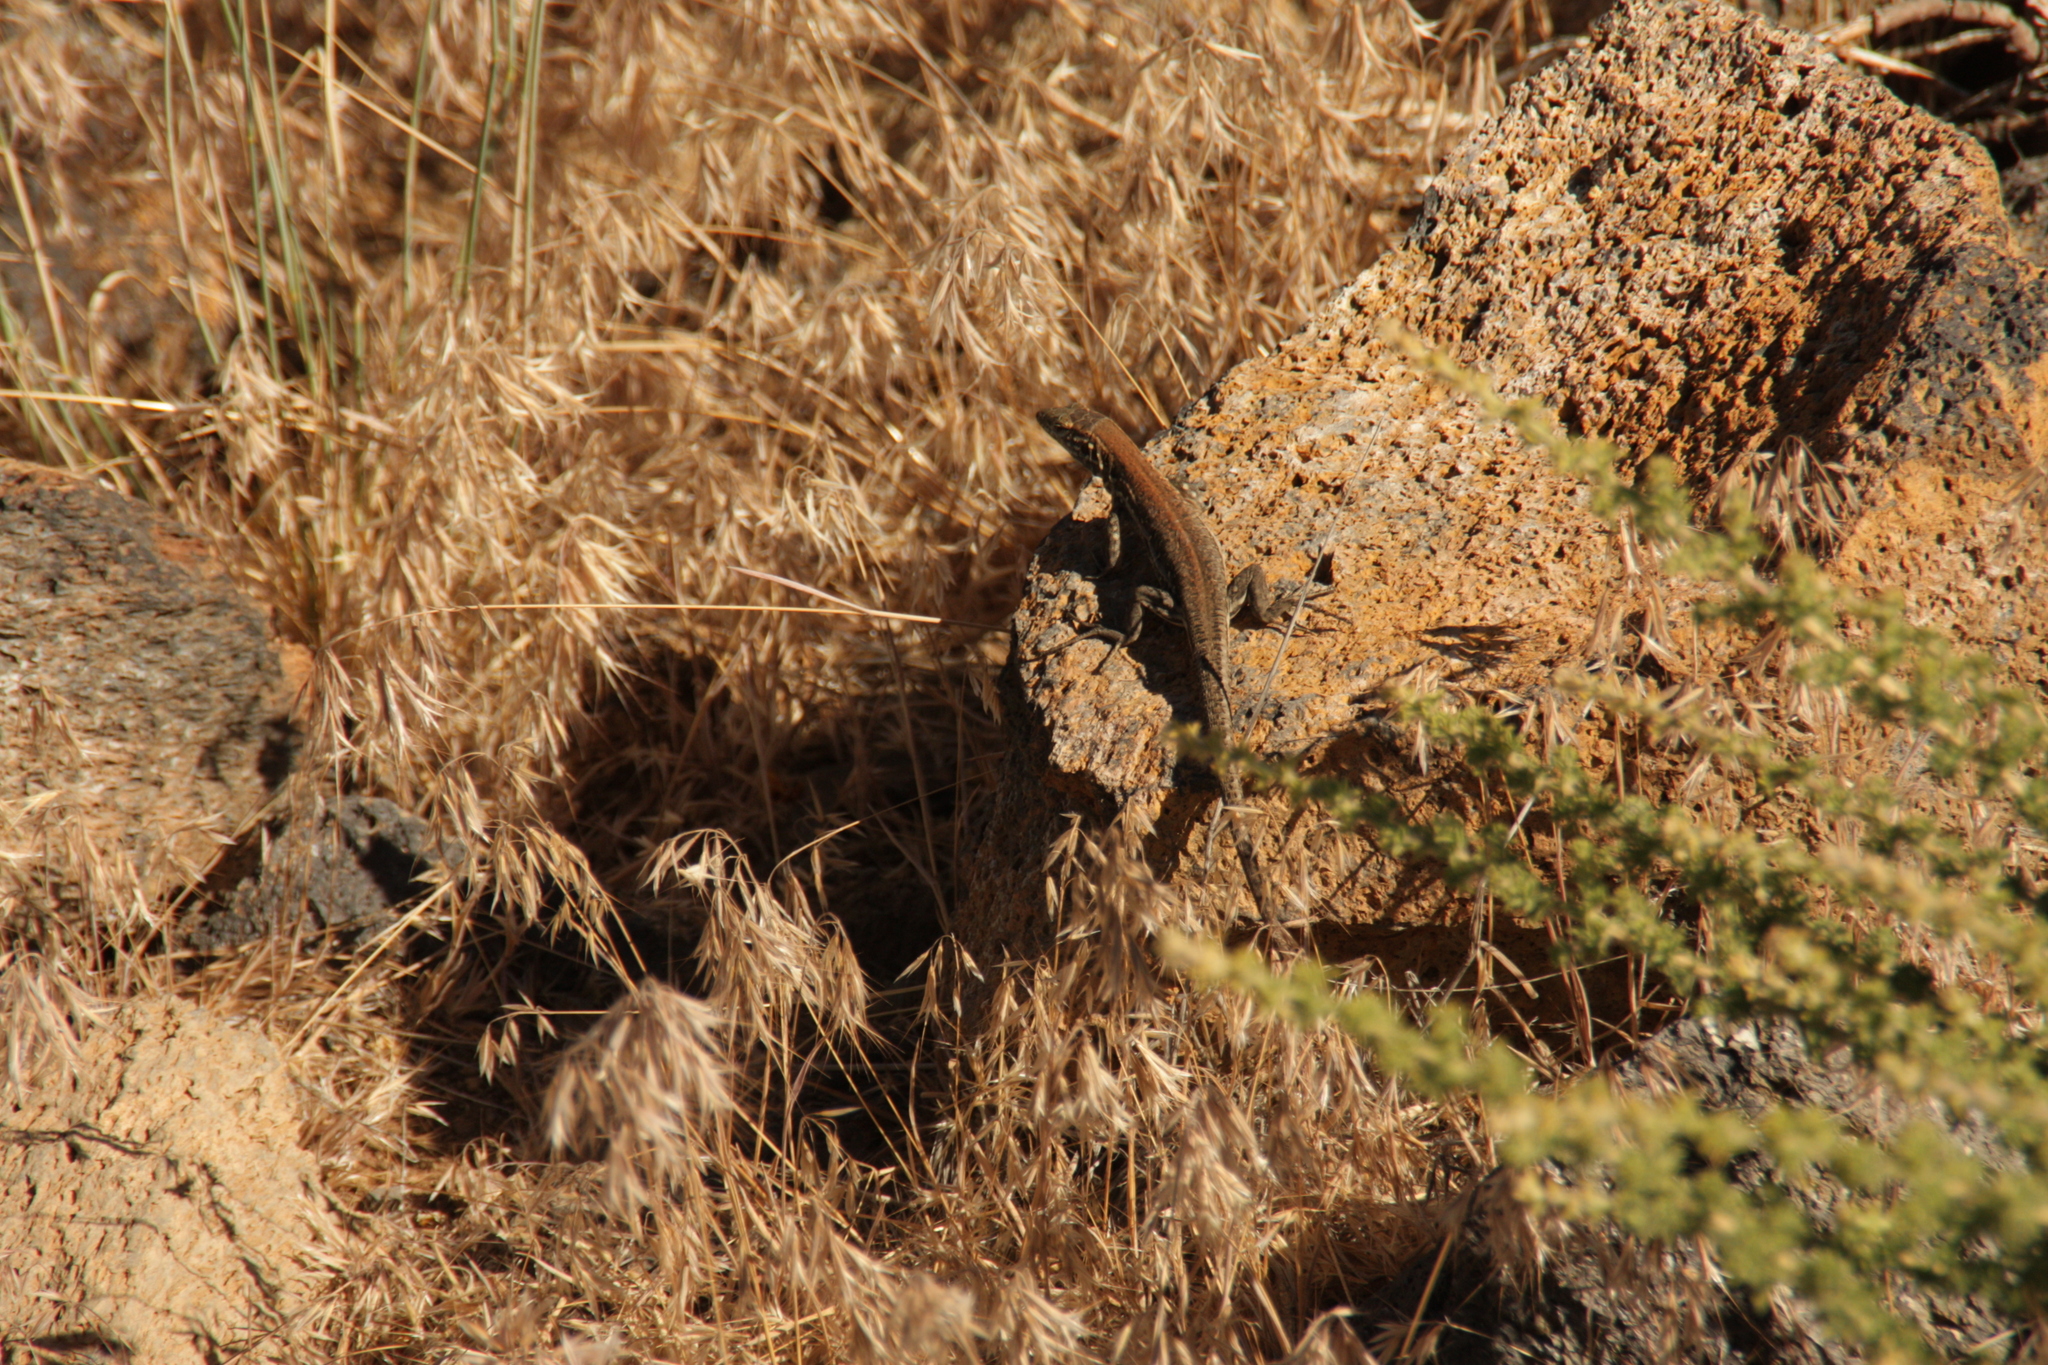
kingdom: Animalia
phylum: Chordata
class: Squamata
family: Lacertidae
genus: Gallotia
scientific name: Gallotia galloti
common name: Gallot's lizard
